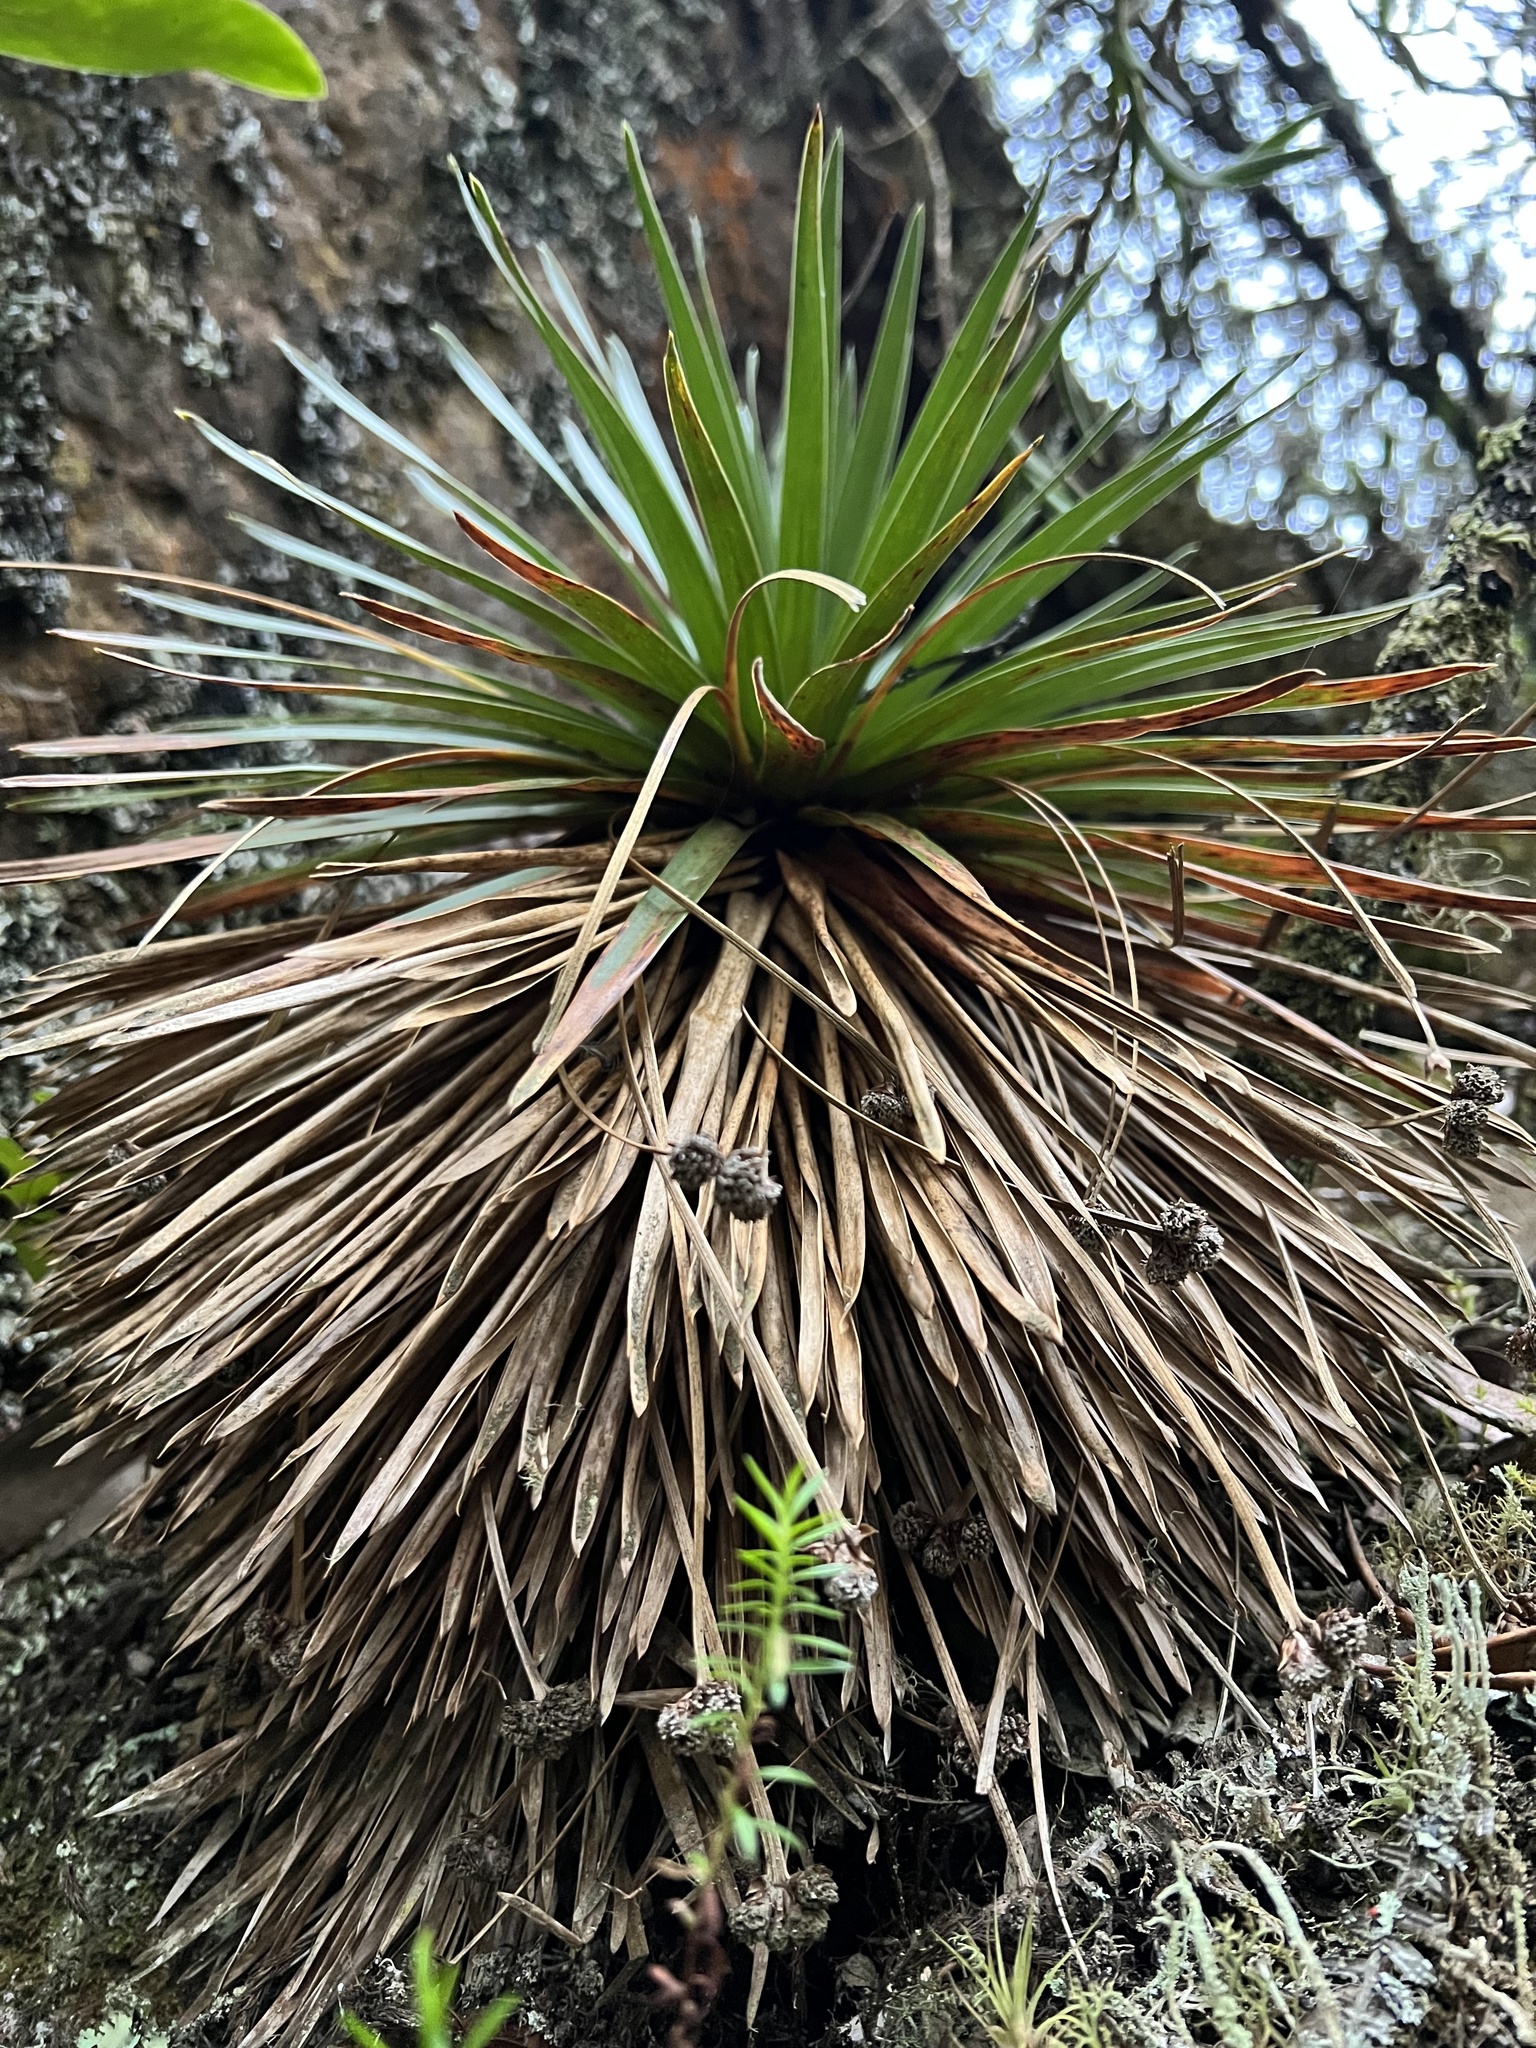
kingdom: Plantae
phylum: Tracheophyta
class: Liliopsida
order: Poales
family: Eriocaulaceae
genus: Paepalanthus
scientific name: Paepalanthus alpinus
